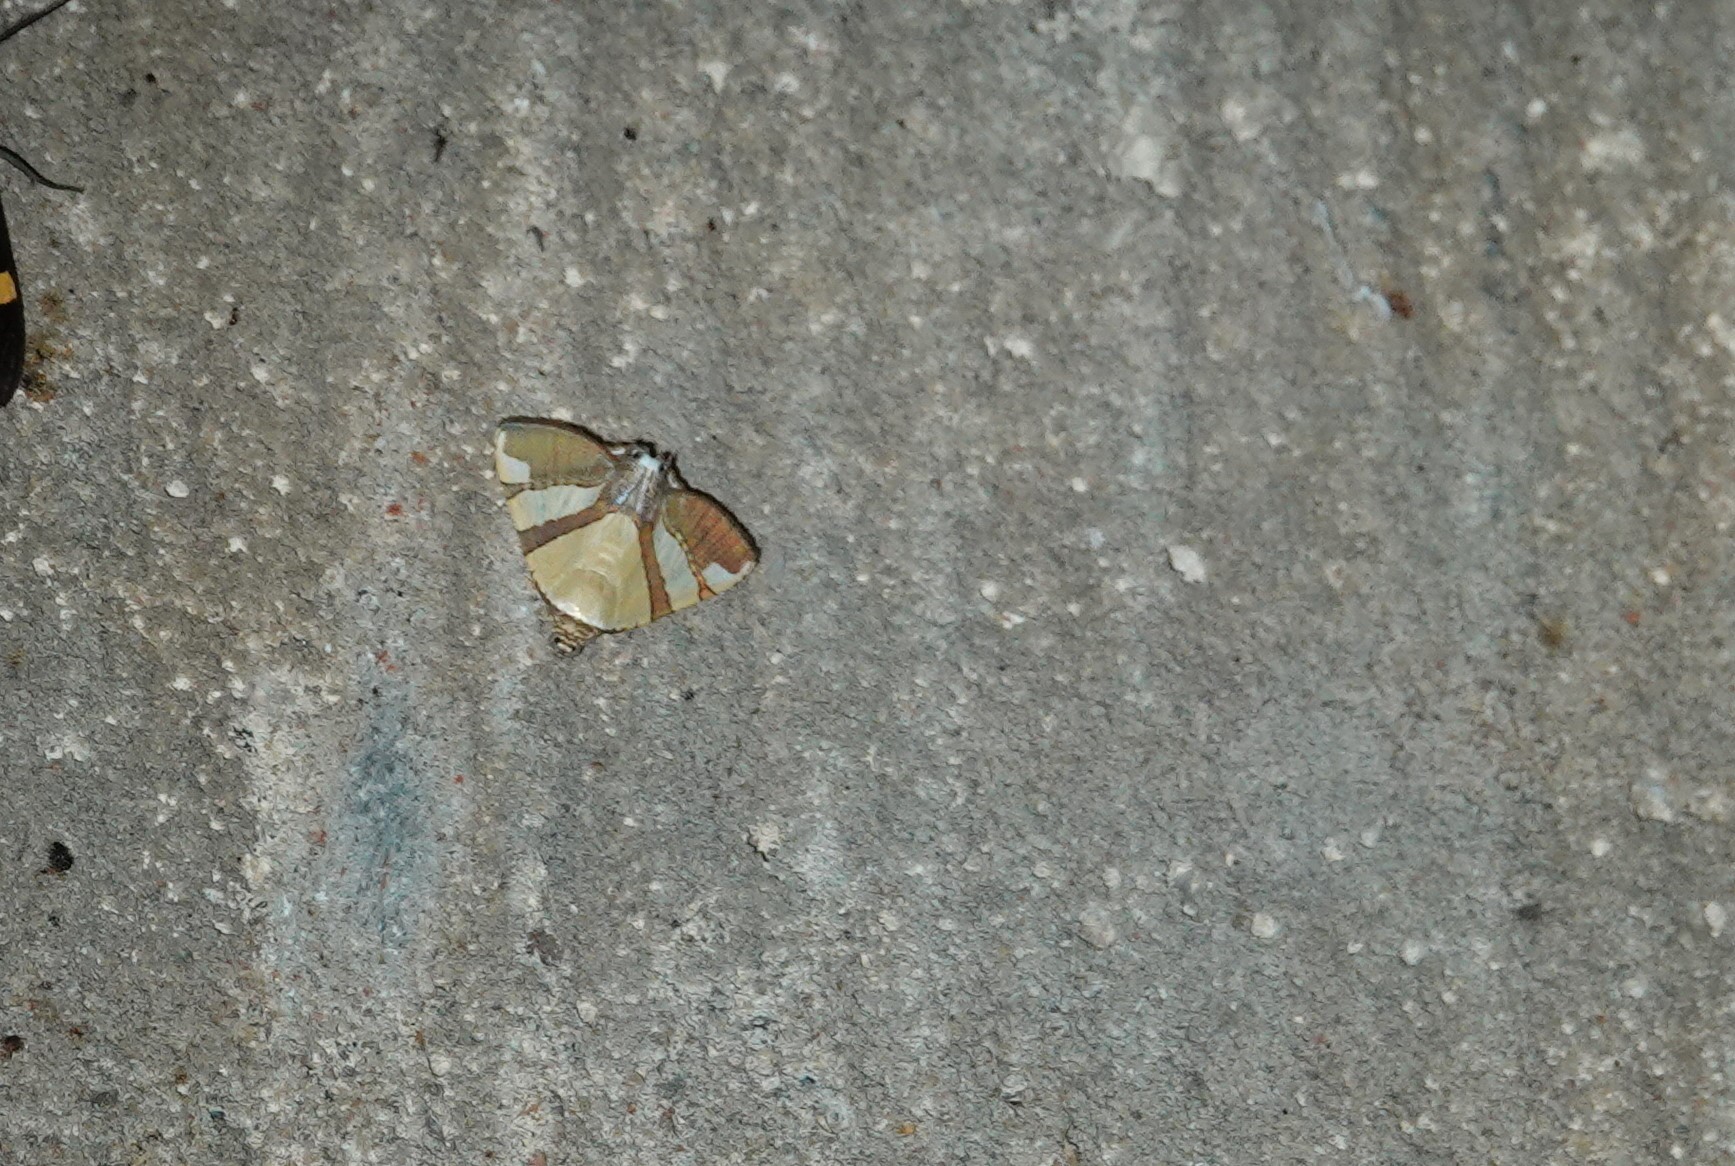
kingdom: Animalia
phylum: Arthropoda
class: Insecta
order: Lepidoptera
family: Erebidae
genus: Eulepidotis
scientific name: Eulepidotis julianata
